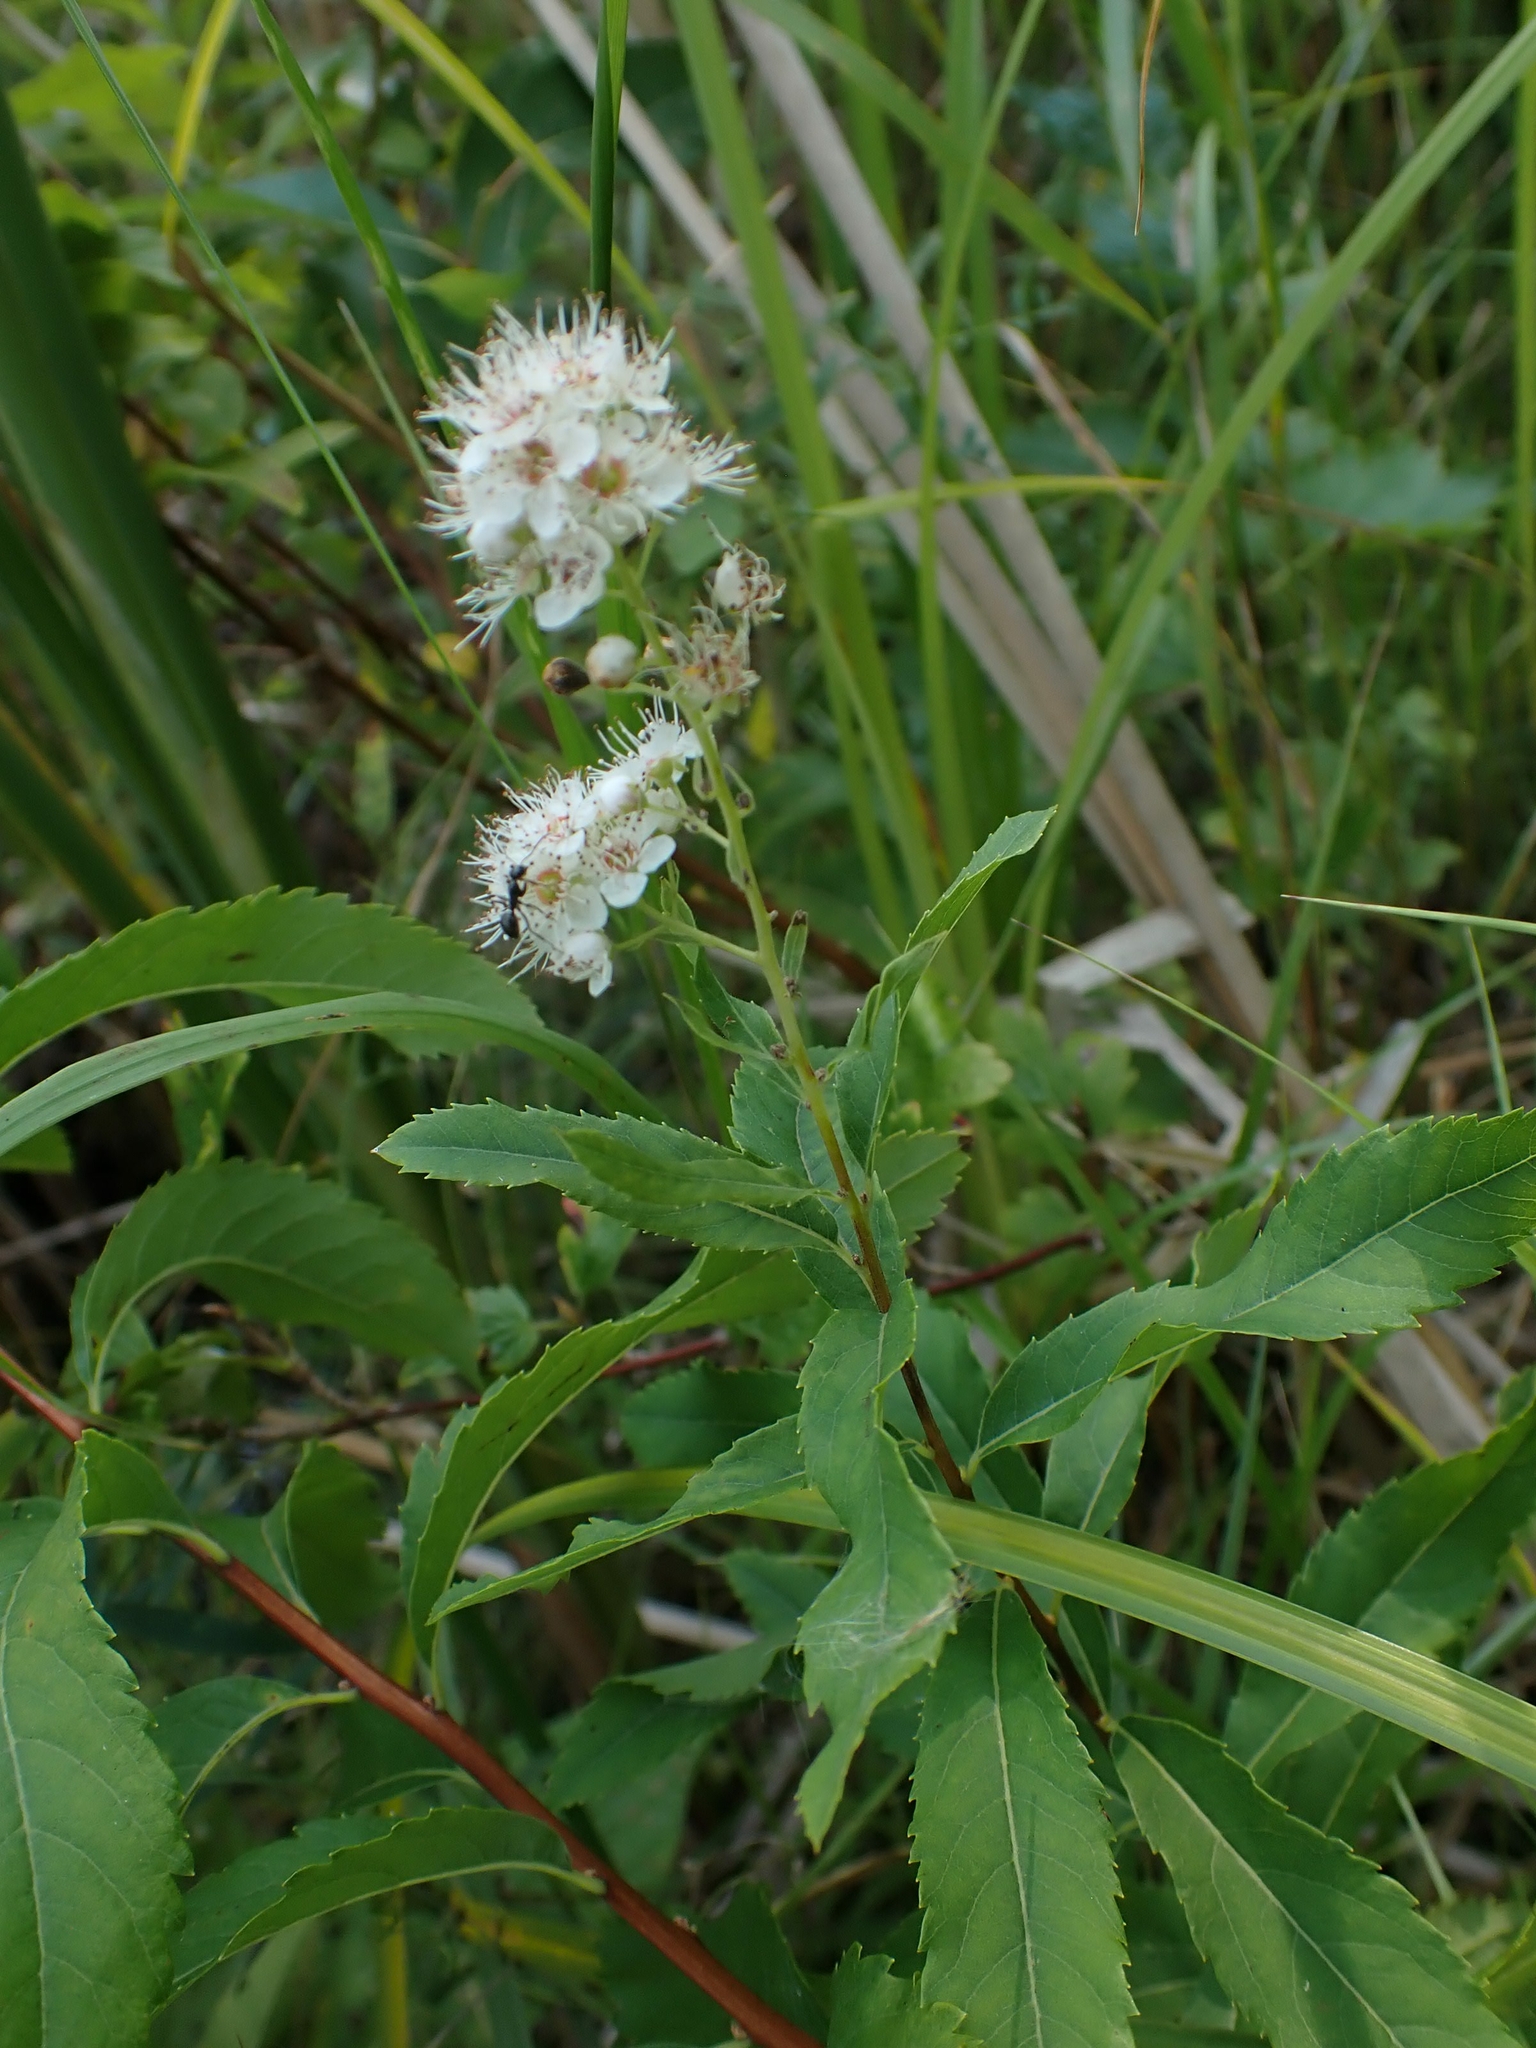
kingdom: Plantae
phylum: Tracheophyta
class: Magnoliopsida
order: Rosales
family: Rosaceae
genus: Spiraea
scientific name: Spiraea alba
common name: Pale bridewort
